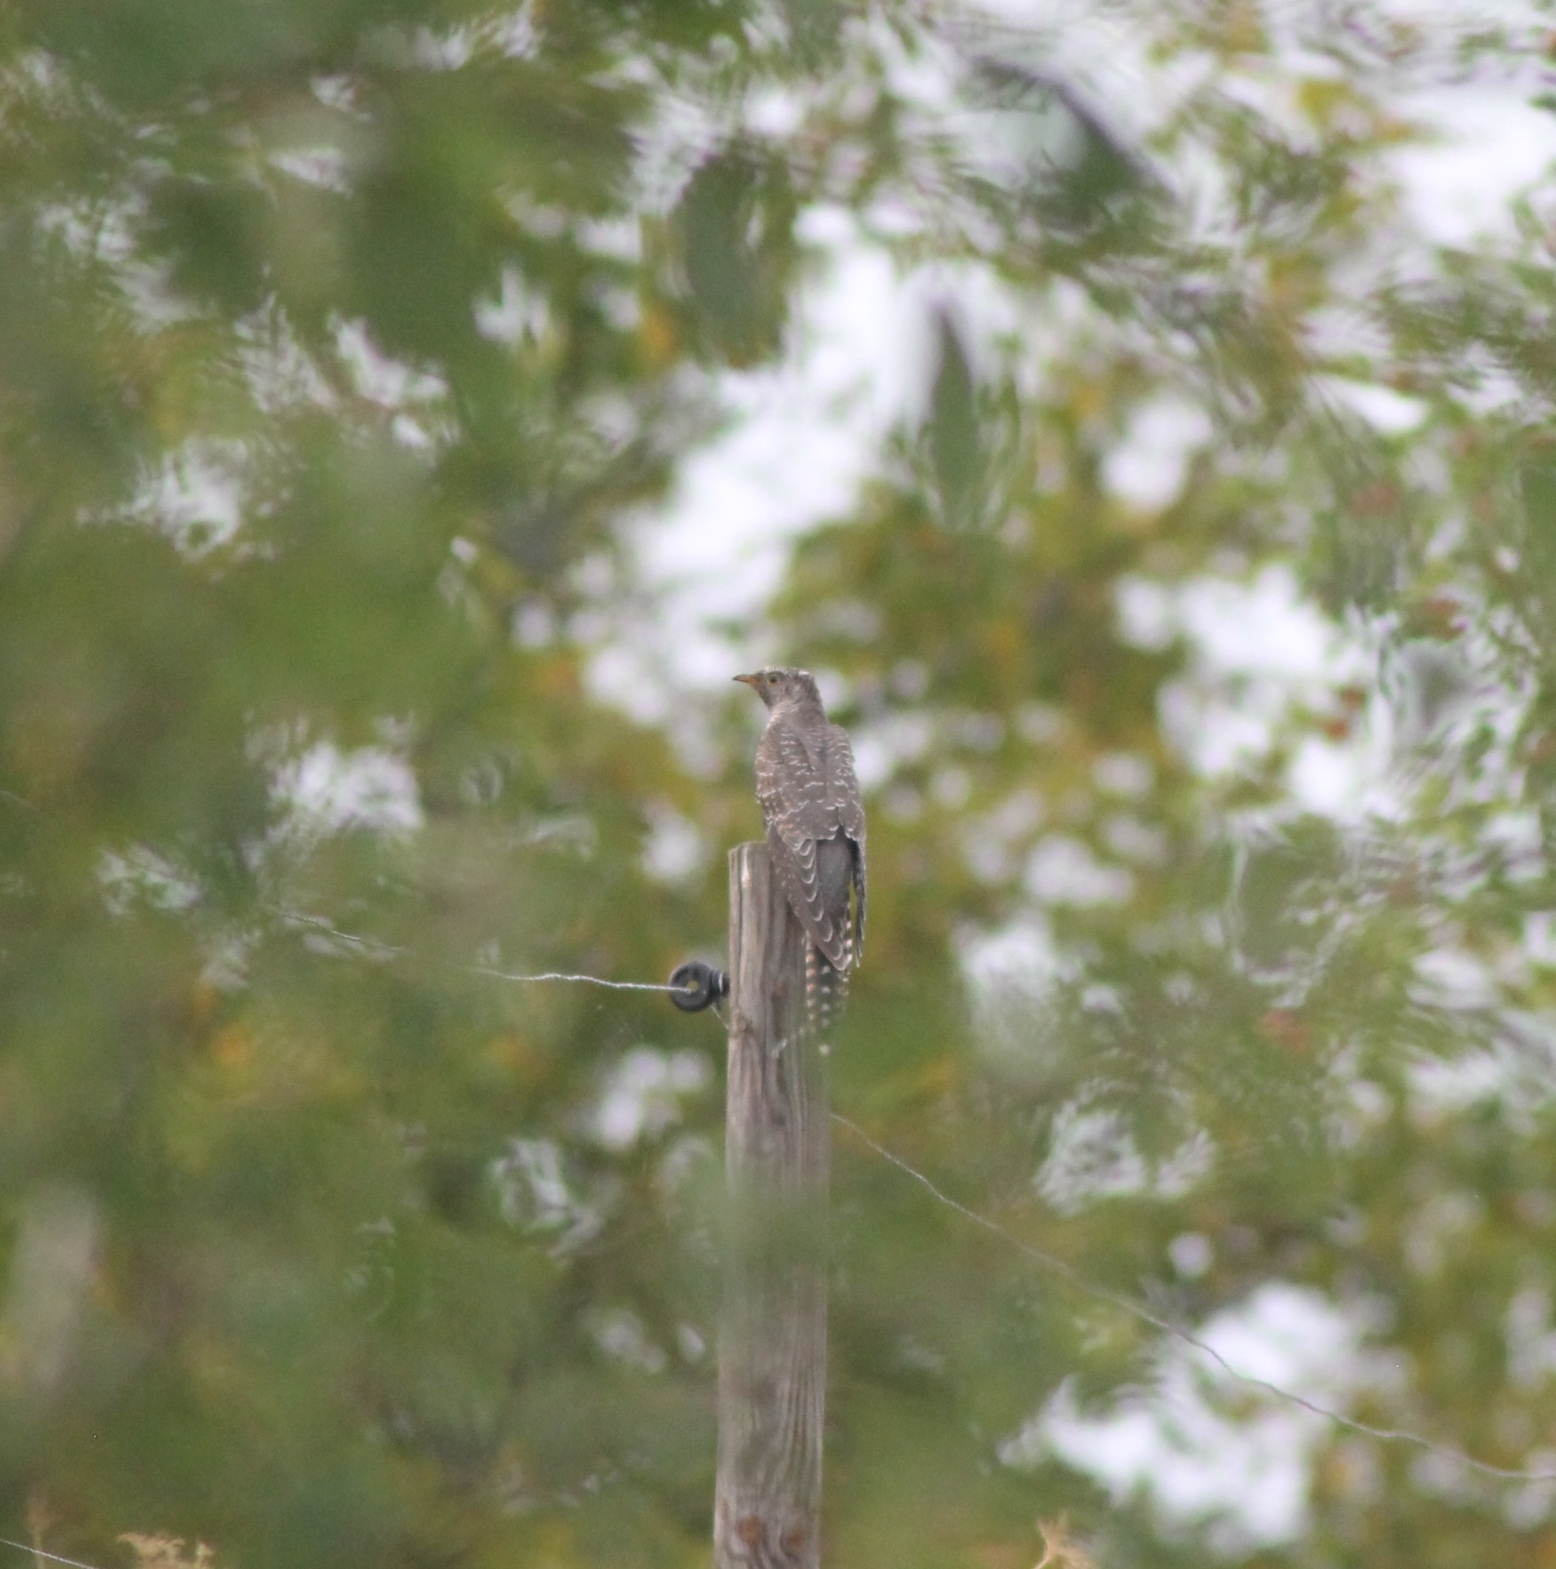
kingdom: Animalia
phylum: Chordata
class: Aves
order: Cuculiformes
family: Cuculidae
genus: Cuculus
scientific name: Cuculus canorus
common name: Common cuckoo
